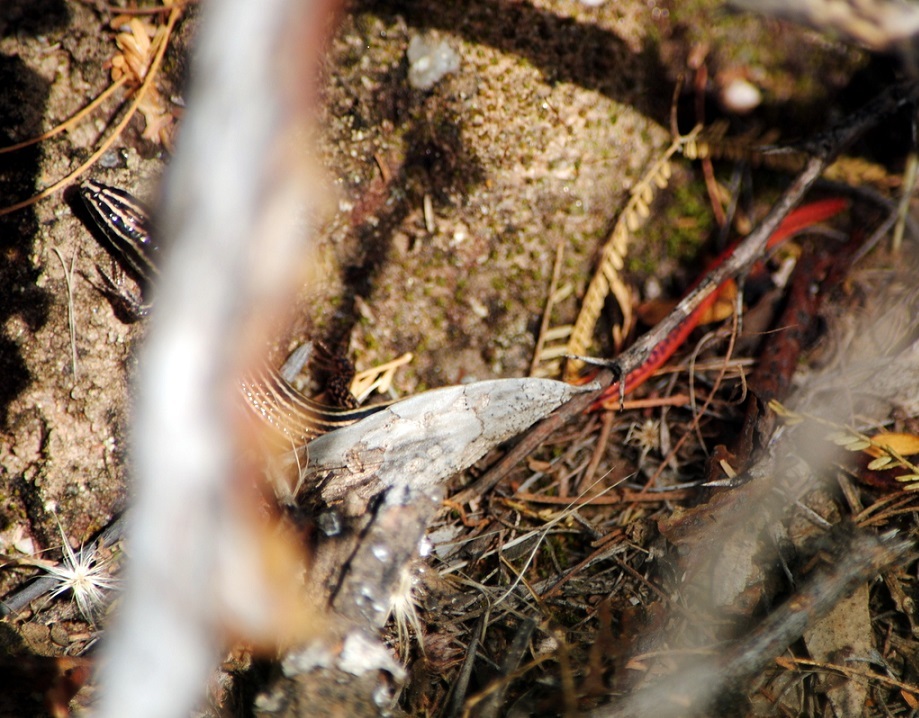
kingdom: Animalia
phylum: Chordata
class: Squamata
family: Gymnophthalmidae
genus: Vanzosaura
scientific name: Vanzosaura rubricauda
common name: Redtail tegus
